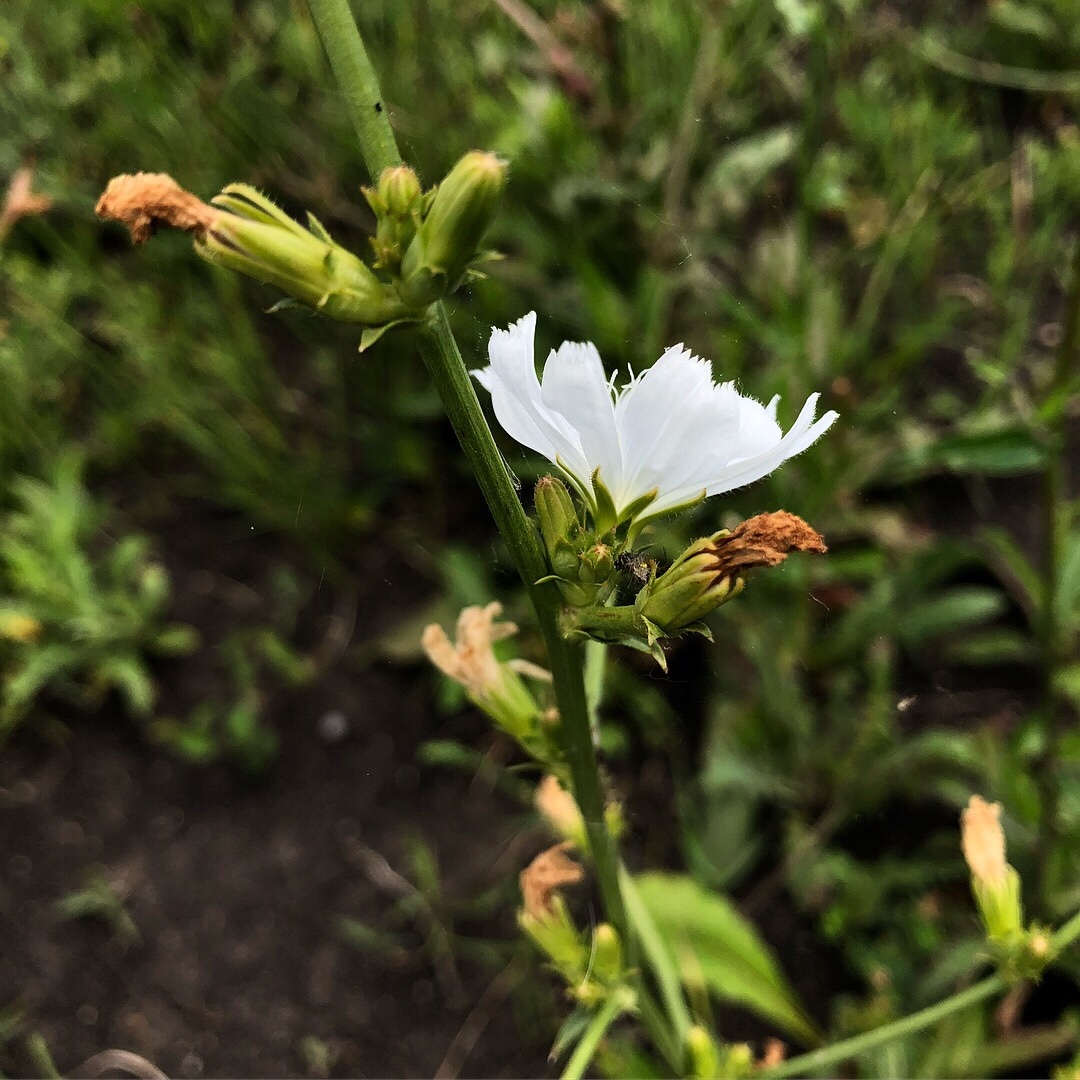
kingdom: Plantae
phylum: Tracheophyta
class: Magnoliopsida
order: Asterales
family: Asteraceae
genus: Cichorium
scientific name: Cichorium intybus
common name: Chicory
